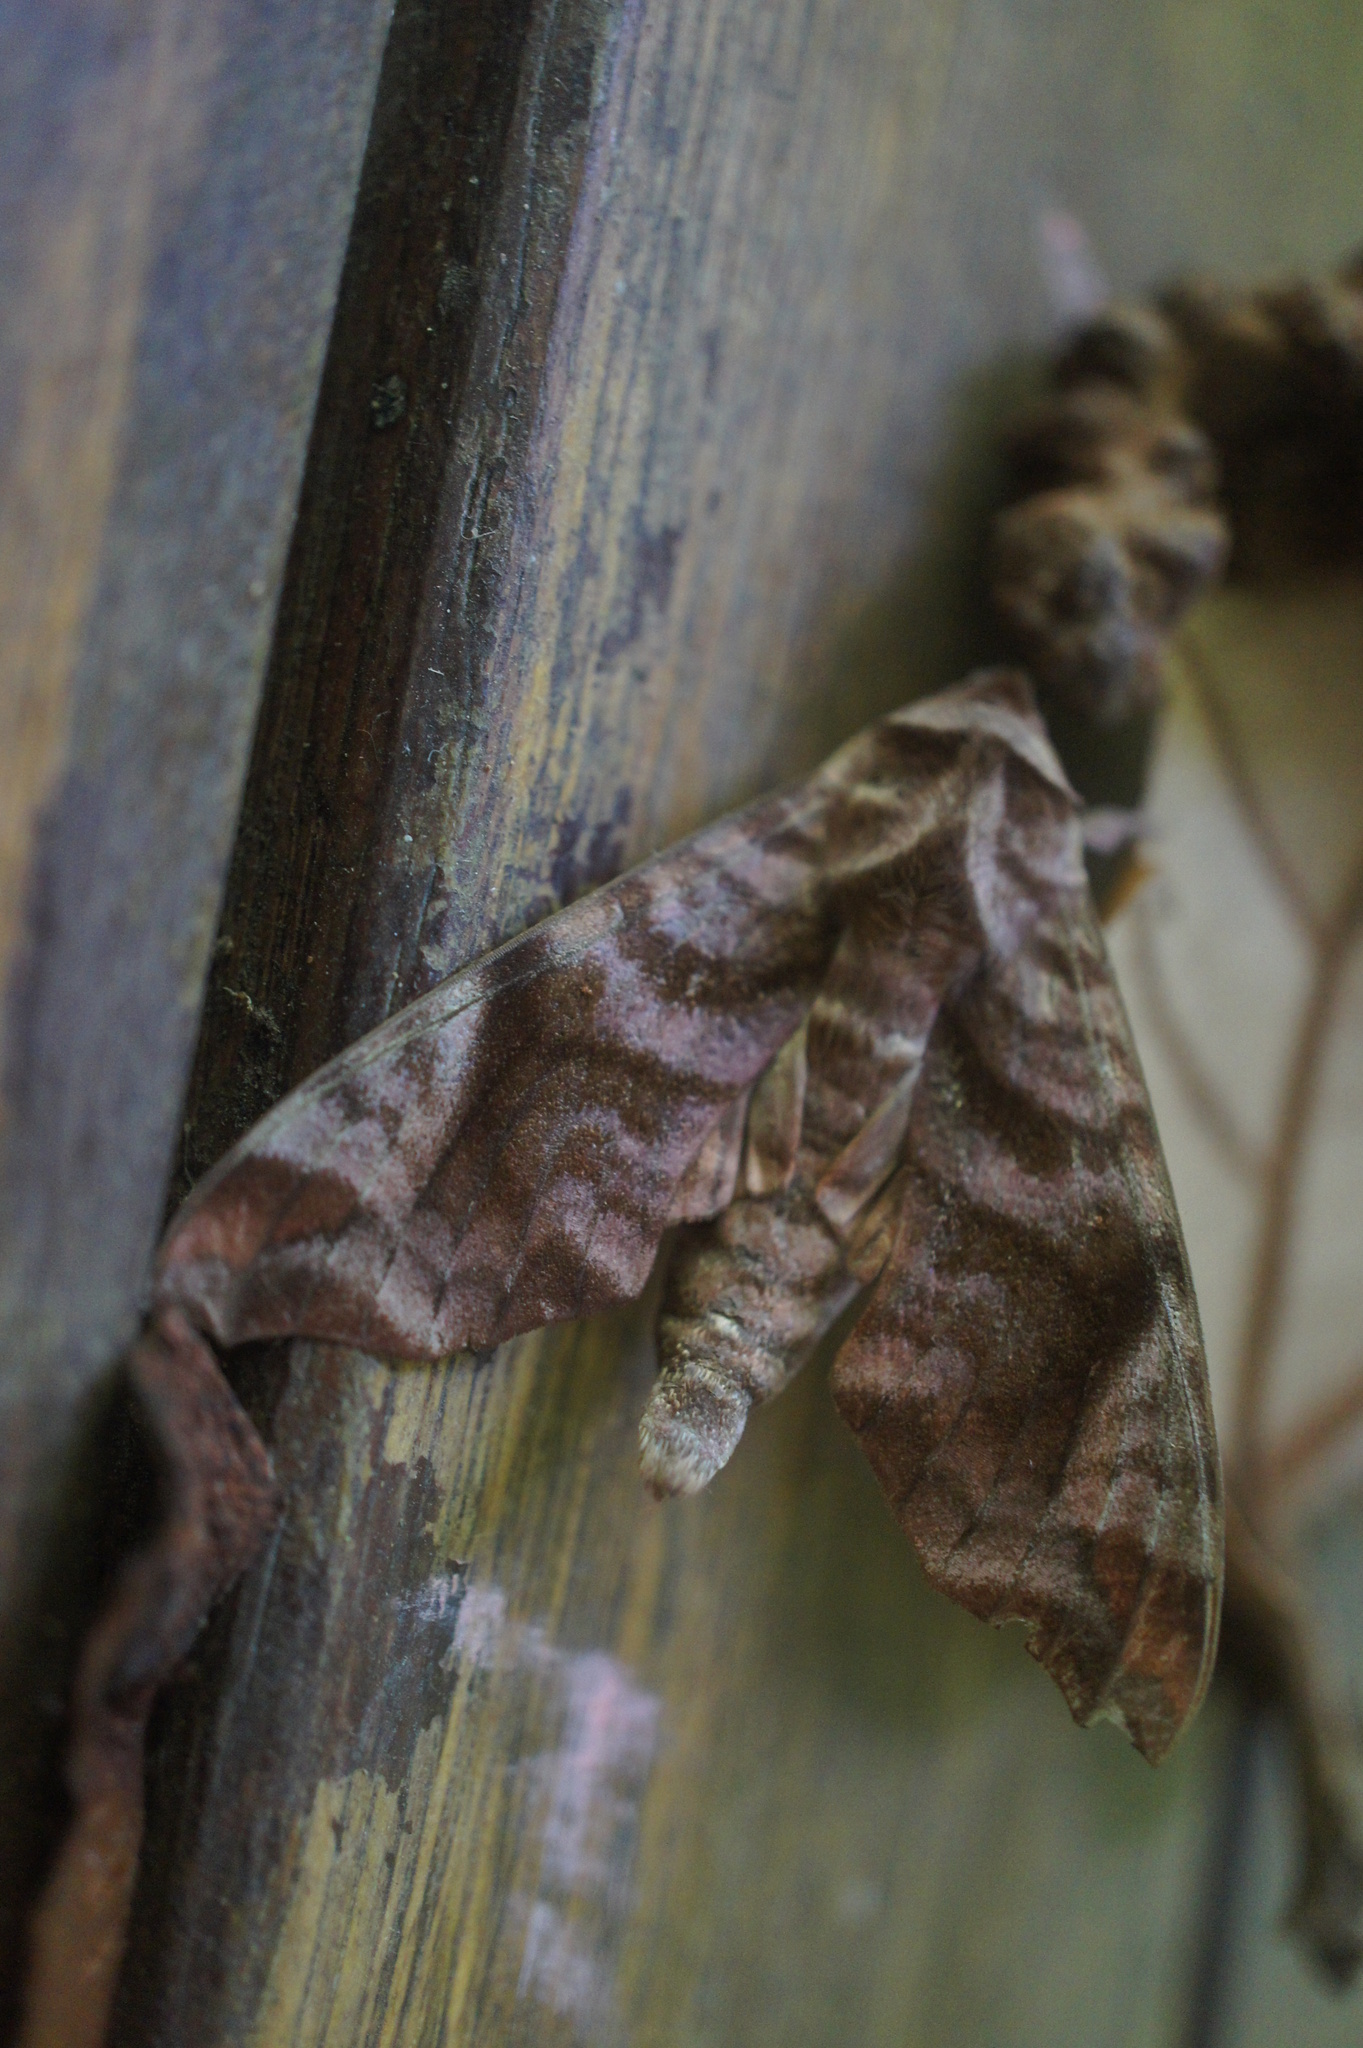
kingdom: Animalia
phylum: Arthropoda
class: Insecta
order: Lepidoptera
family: Sphingidae
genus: Acosmeryx
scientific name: Acosmeryx anceus
